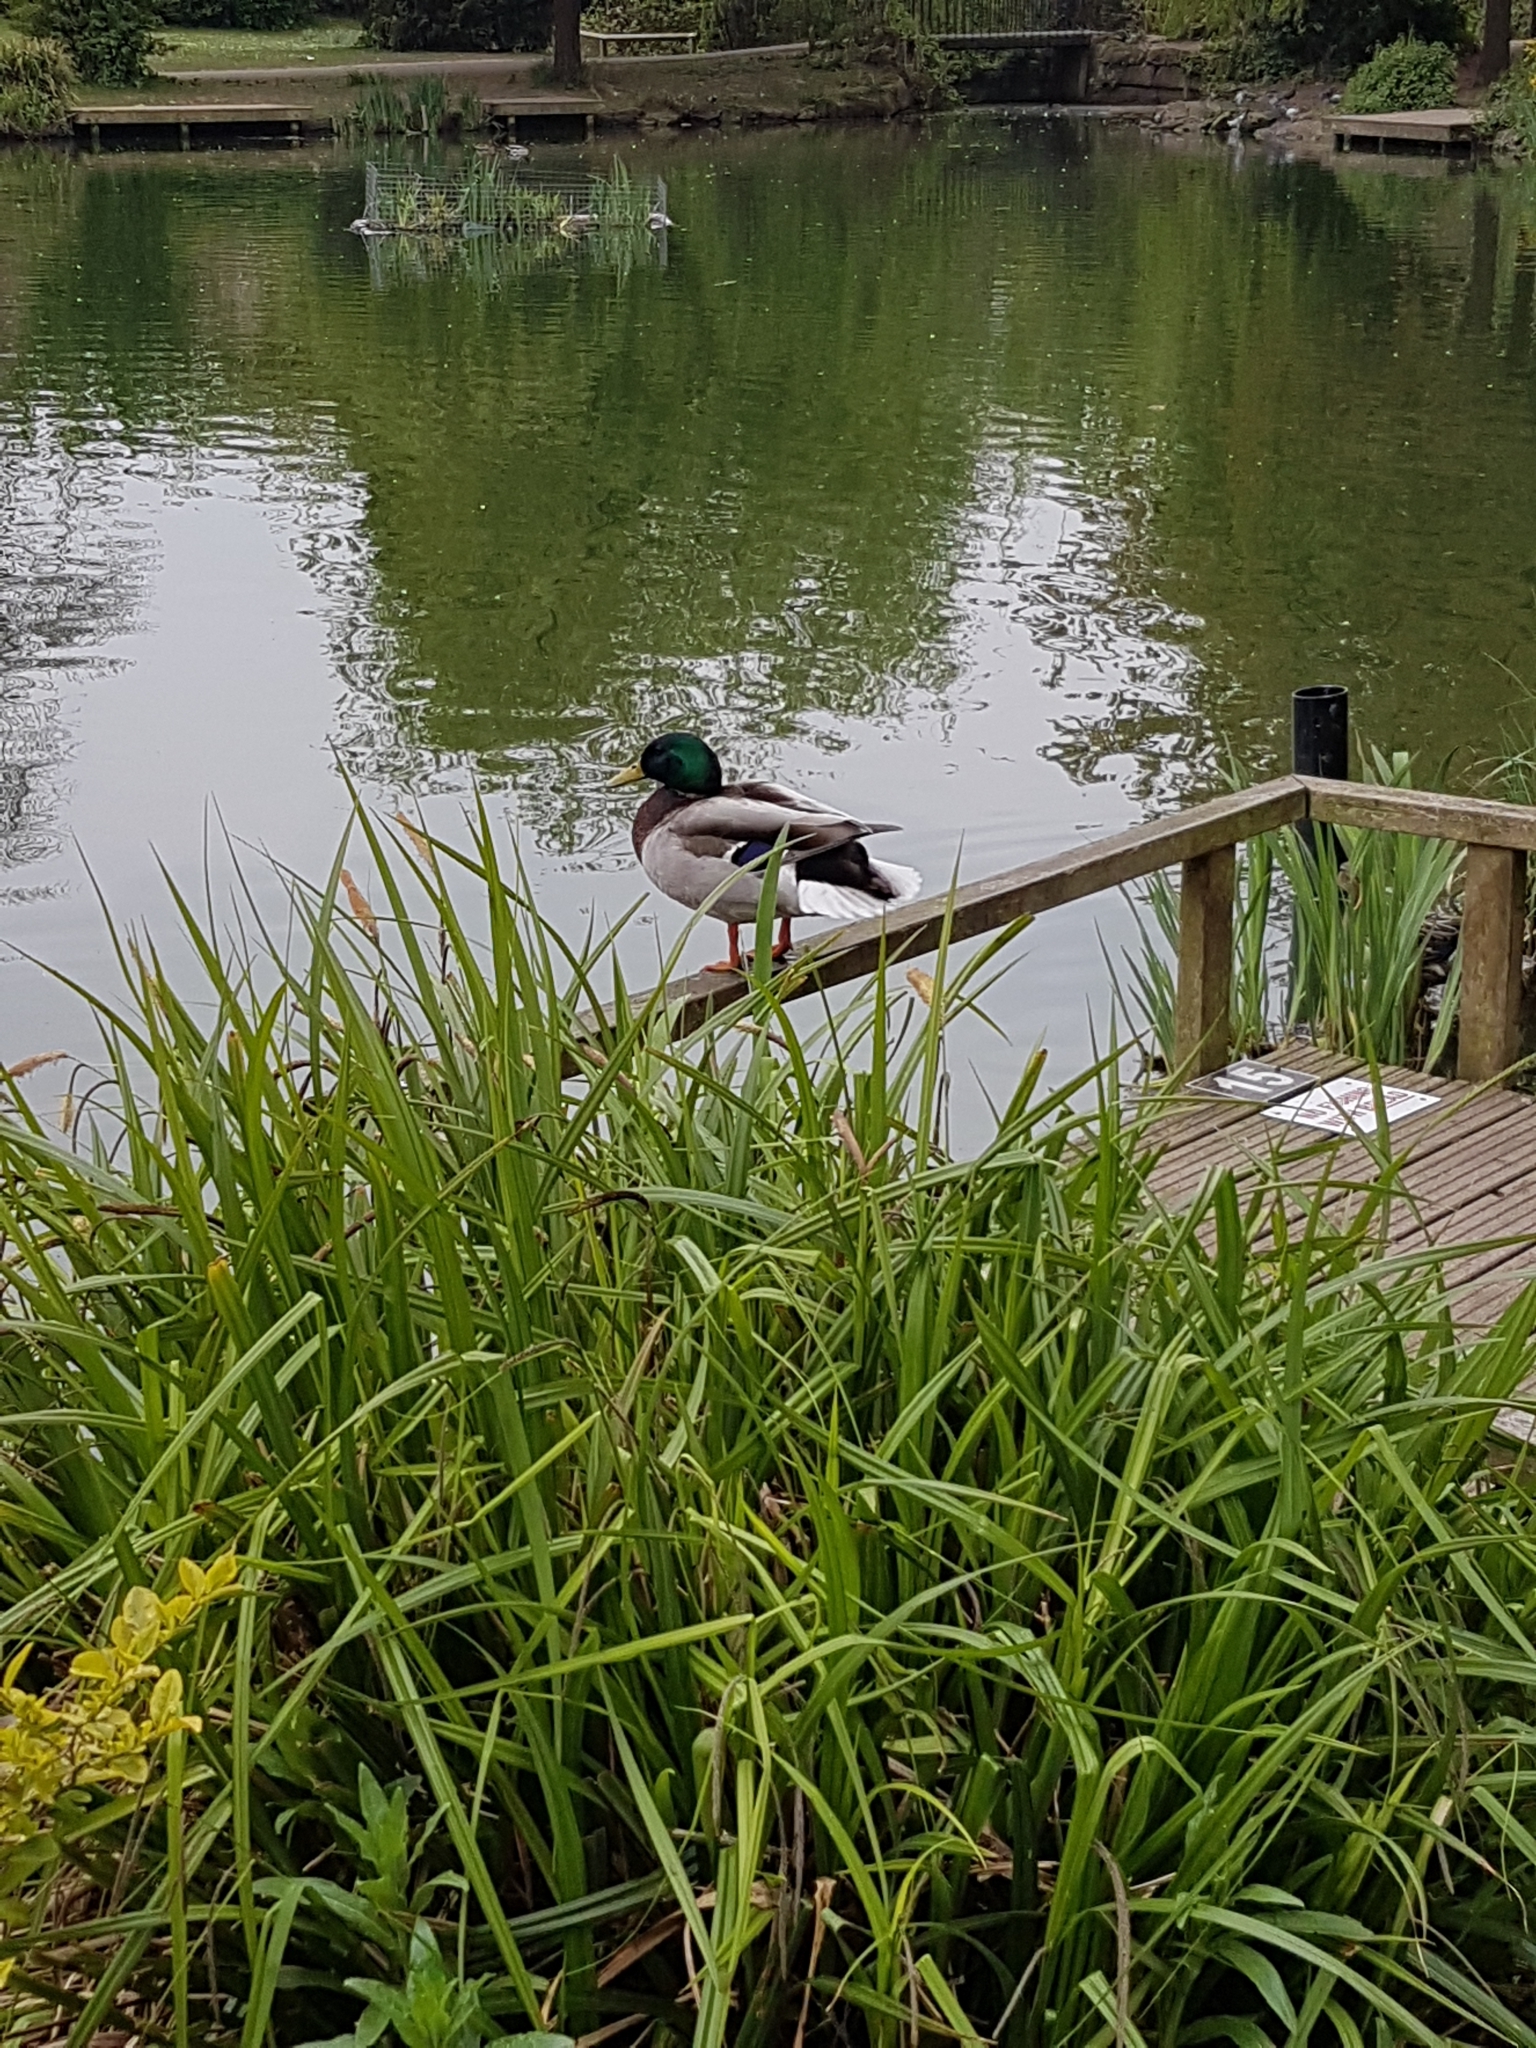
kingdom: Animalia
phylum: Chordata
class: Aves
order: Anseriformes
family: Anatidae
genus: Anas
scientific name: Anas platyrhynchos
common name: Mallard
